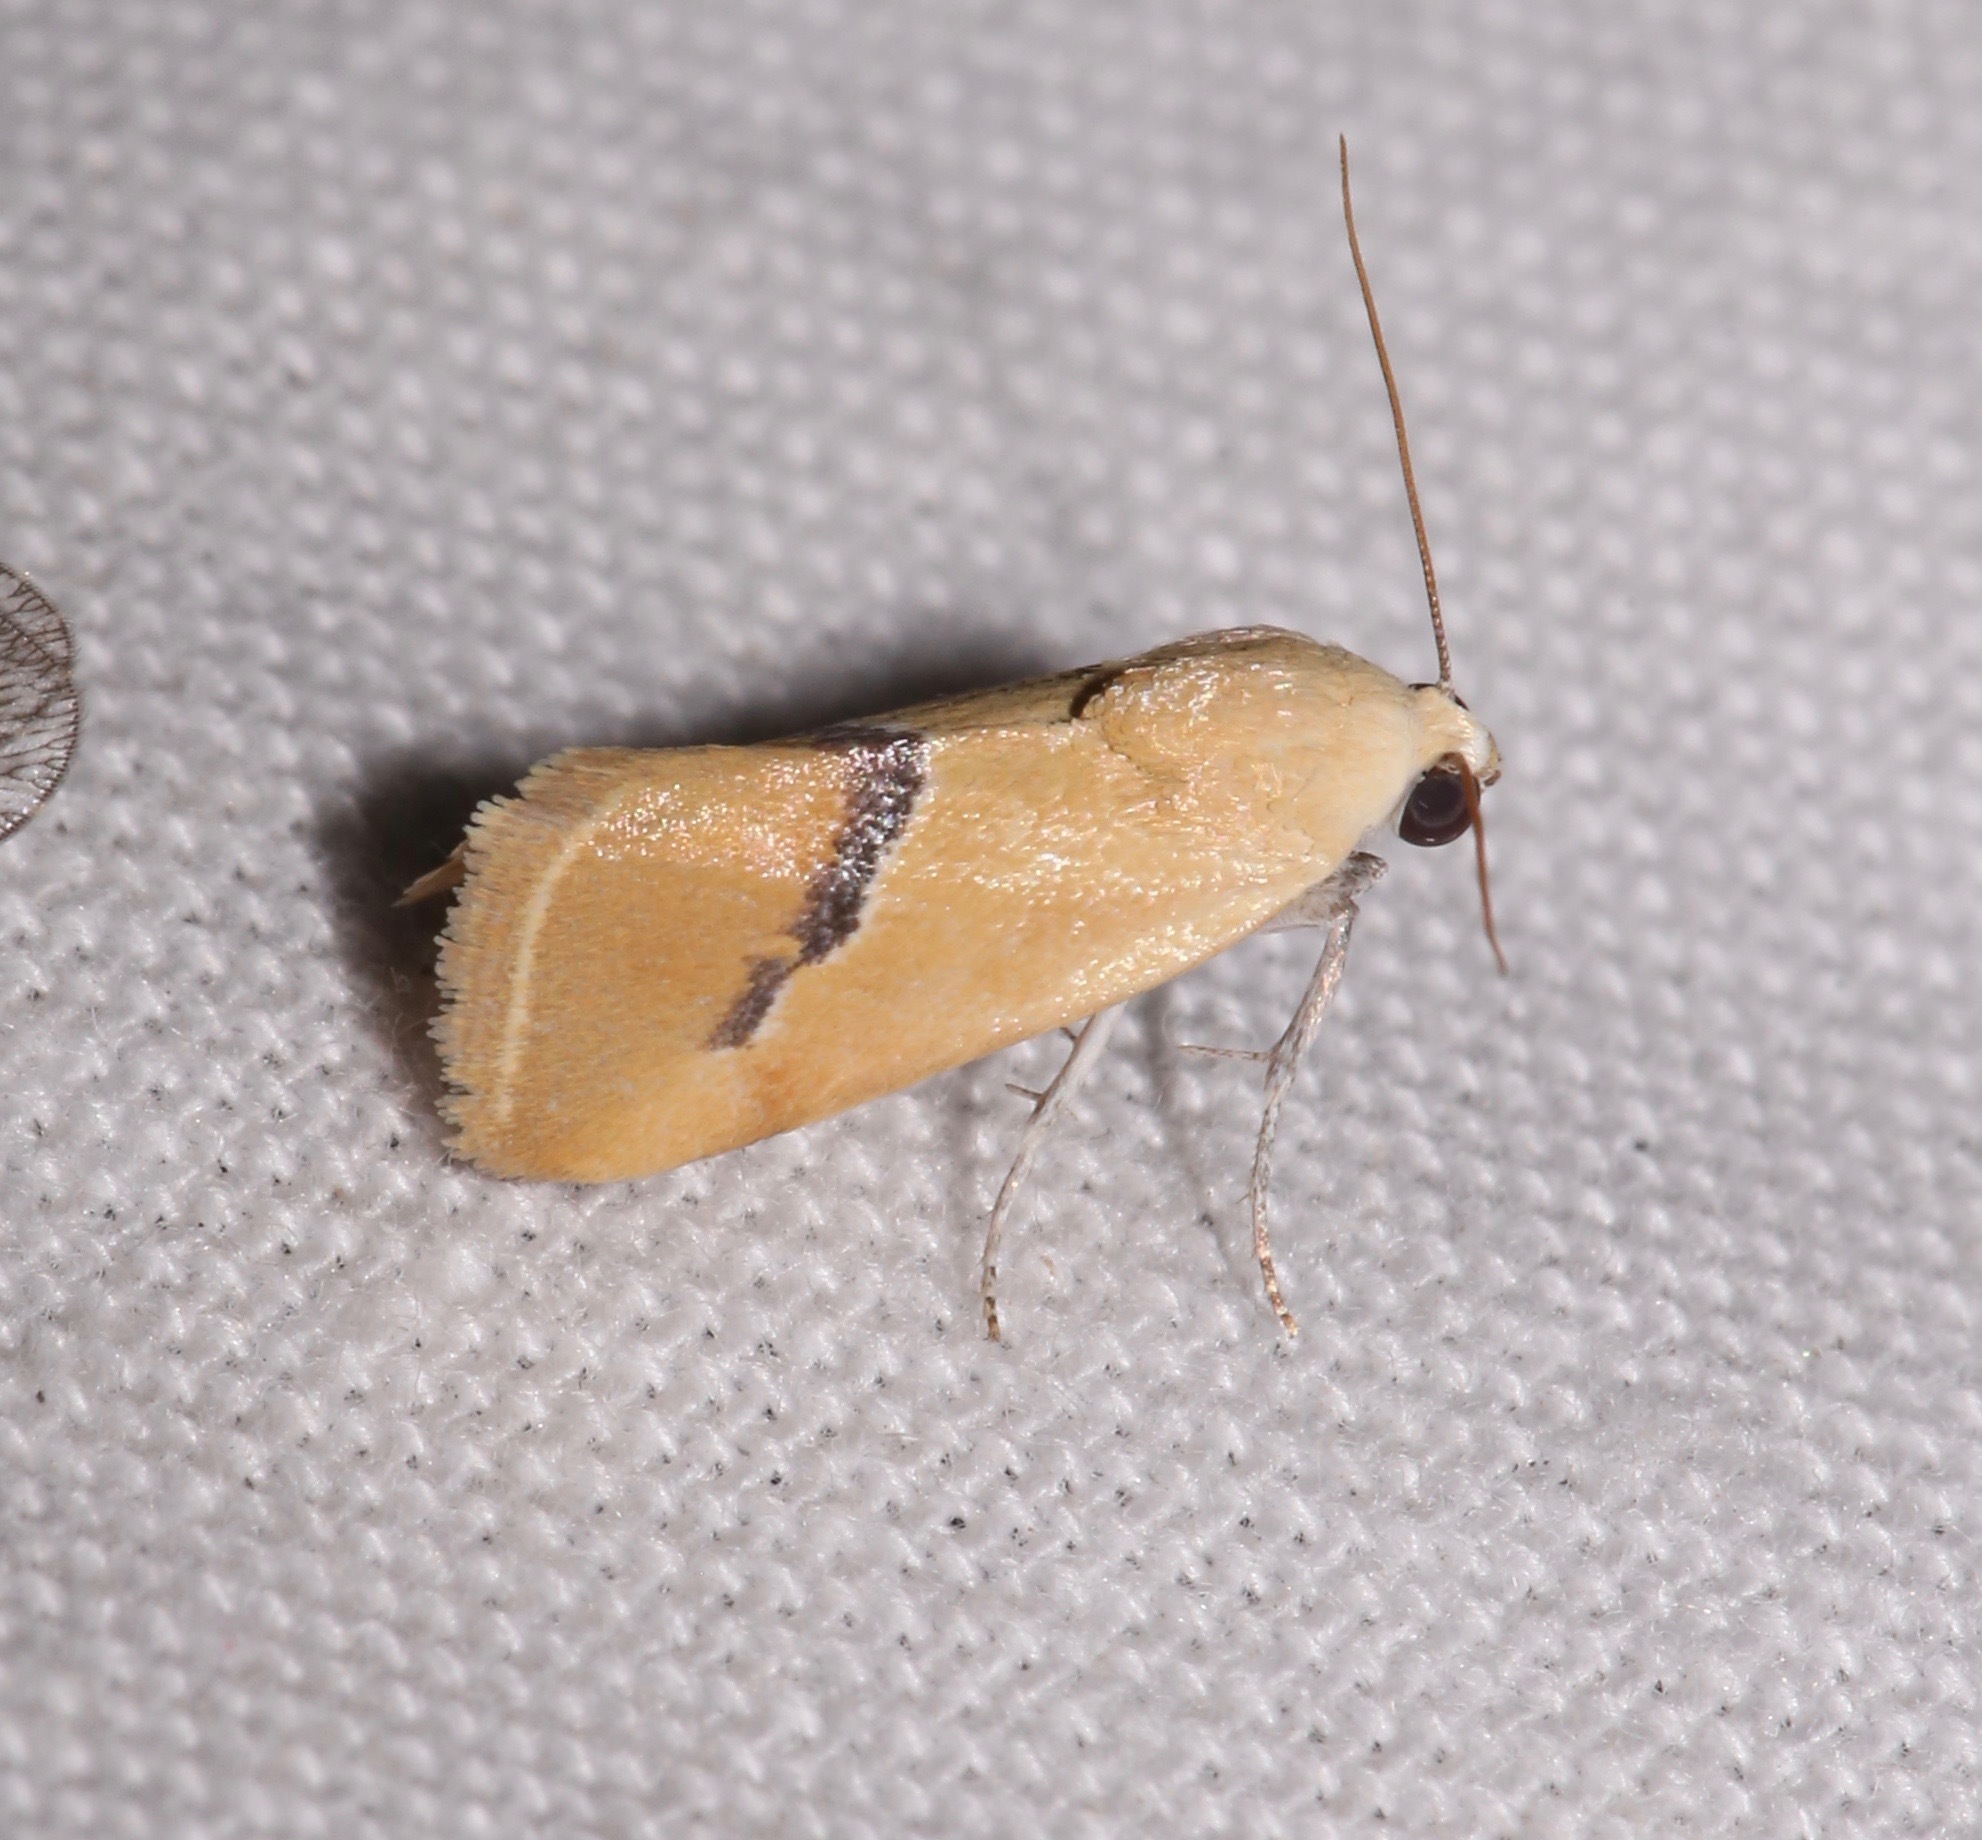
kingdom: Animalia
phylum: Arthropoda
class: Insecta
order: Lepidoptera
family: Noctuidae
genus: Ponometia
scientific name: Ponometia venustula
